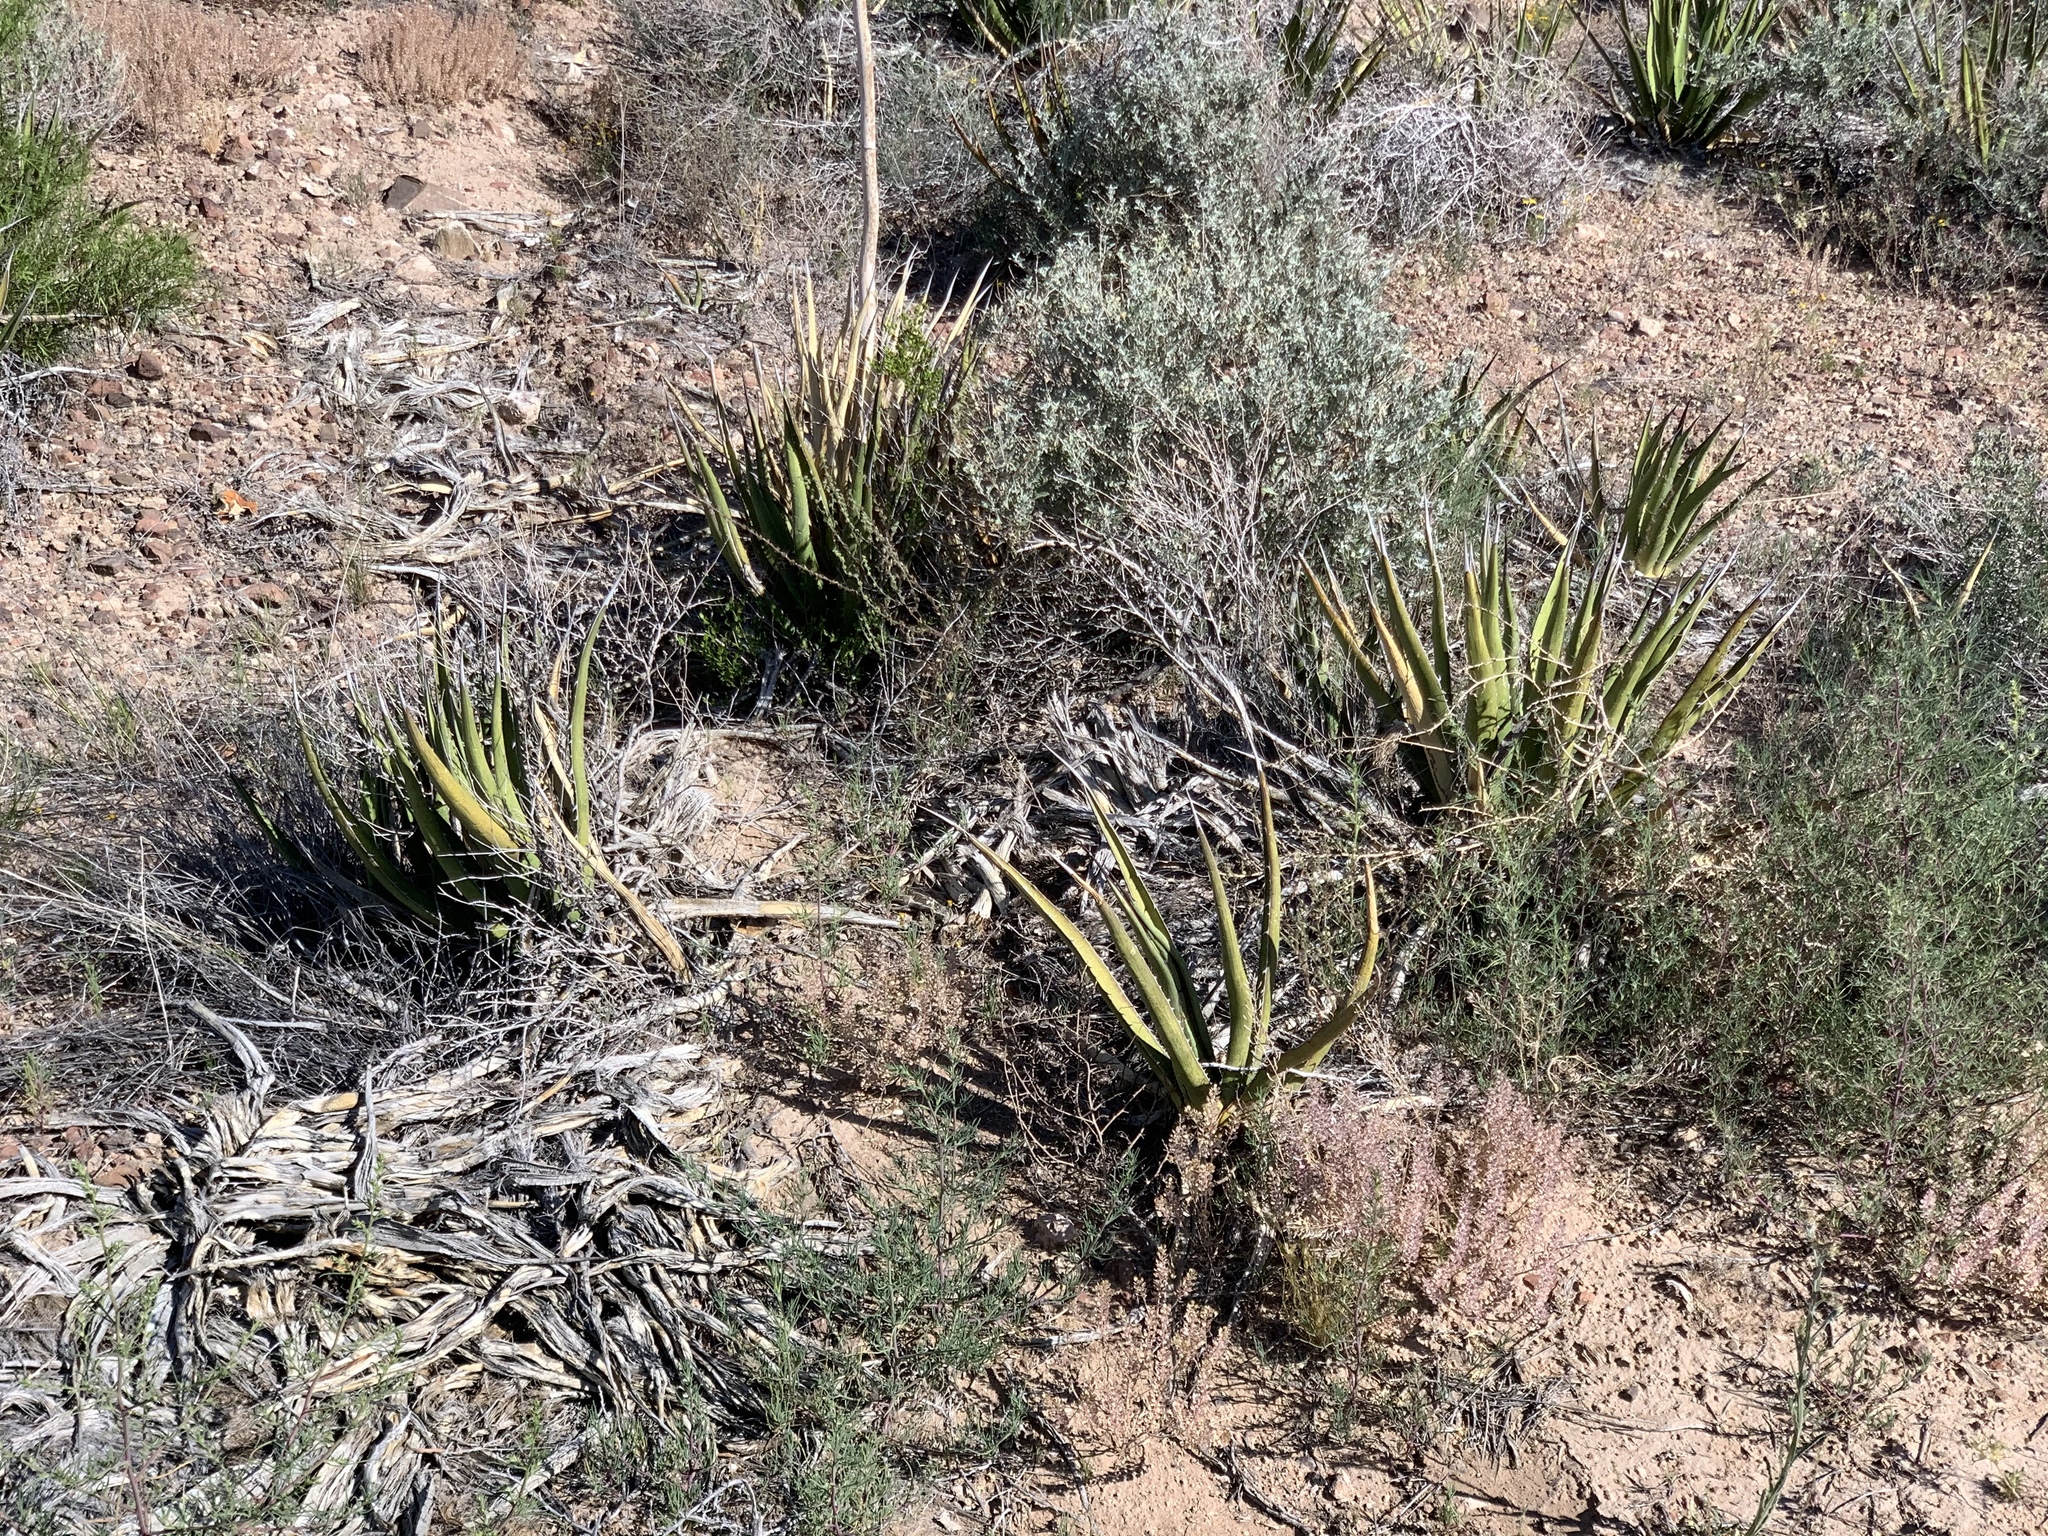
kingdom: Plantae
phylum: Tracheophyta
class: Liliopsida
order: Asparagales
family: Asparagaceae
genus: Agave
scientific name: Agave lechuguilla
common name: Lecheguilla agave
